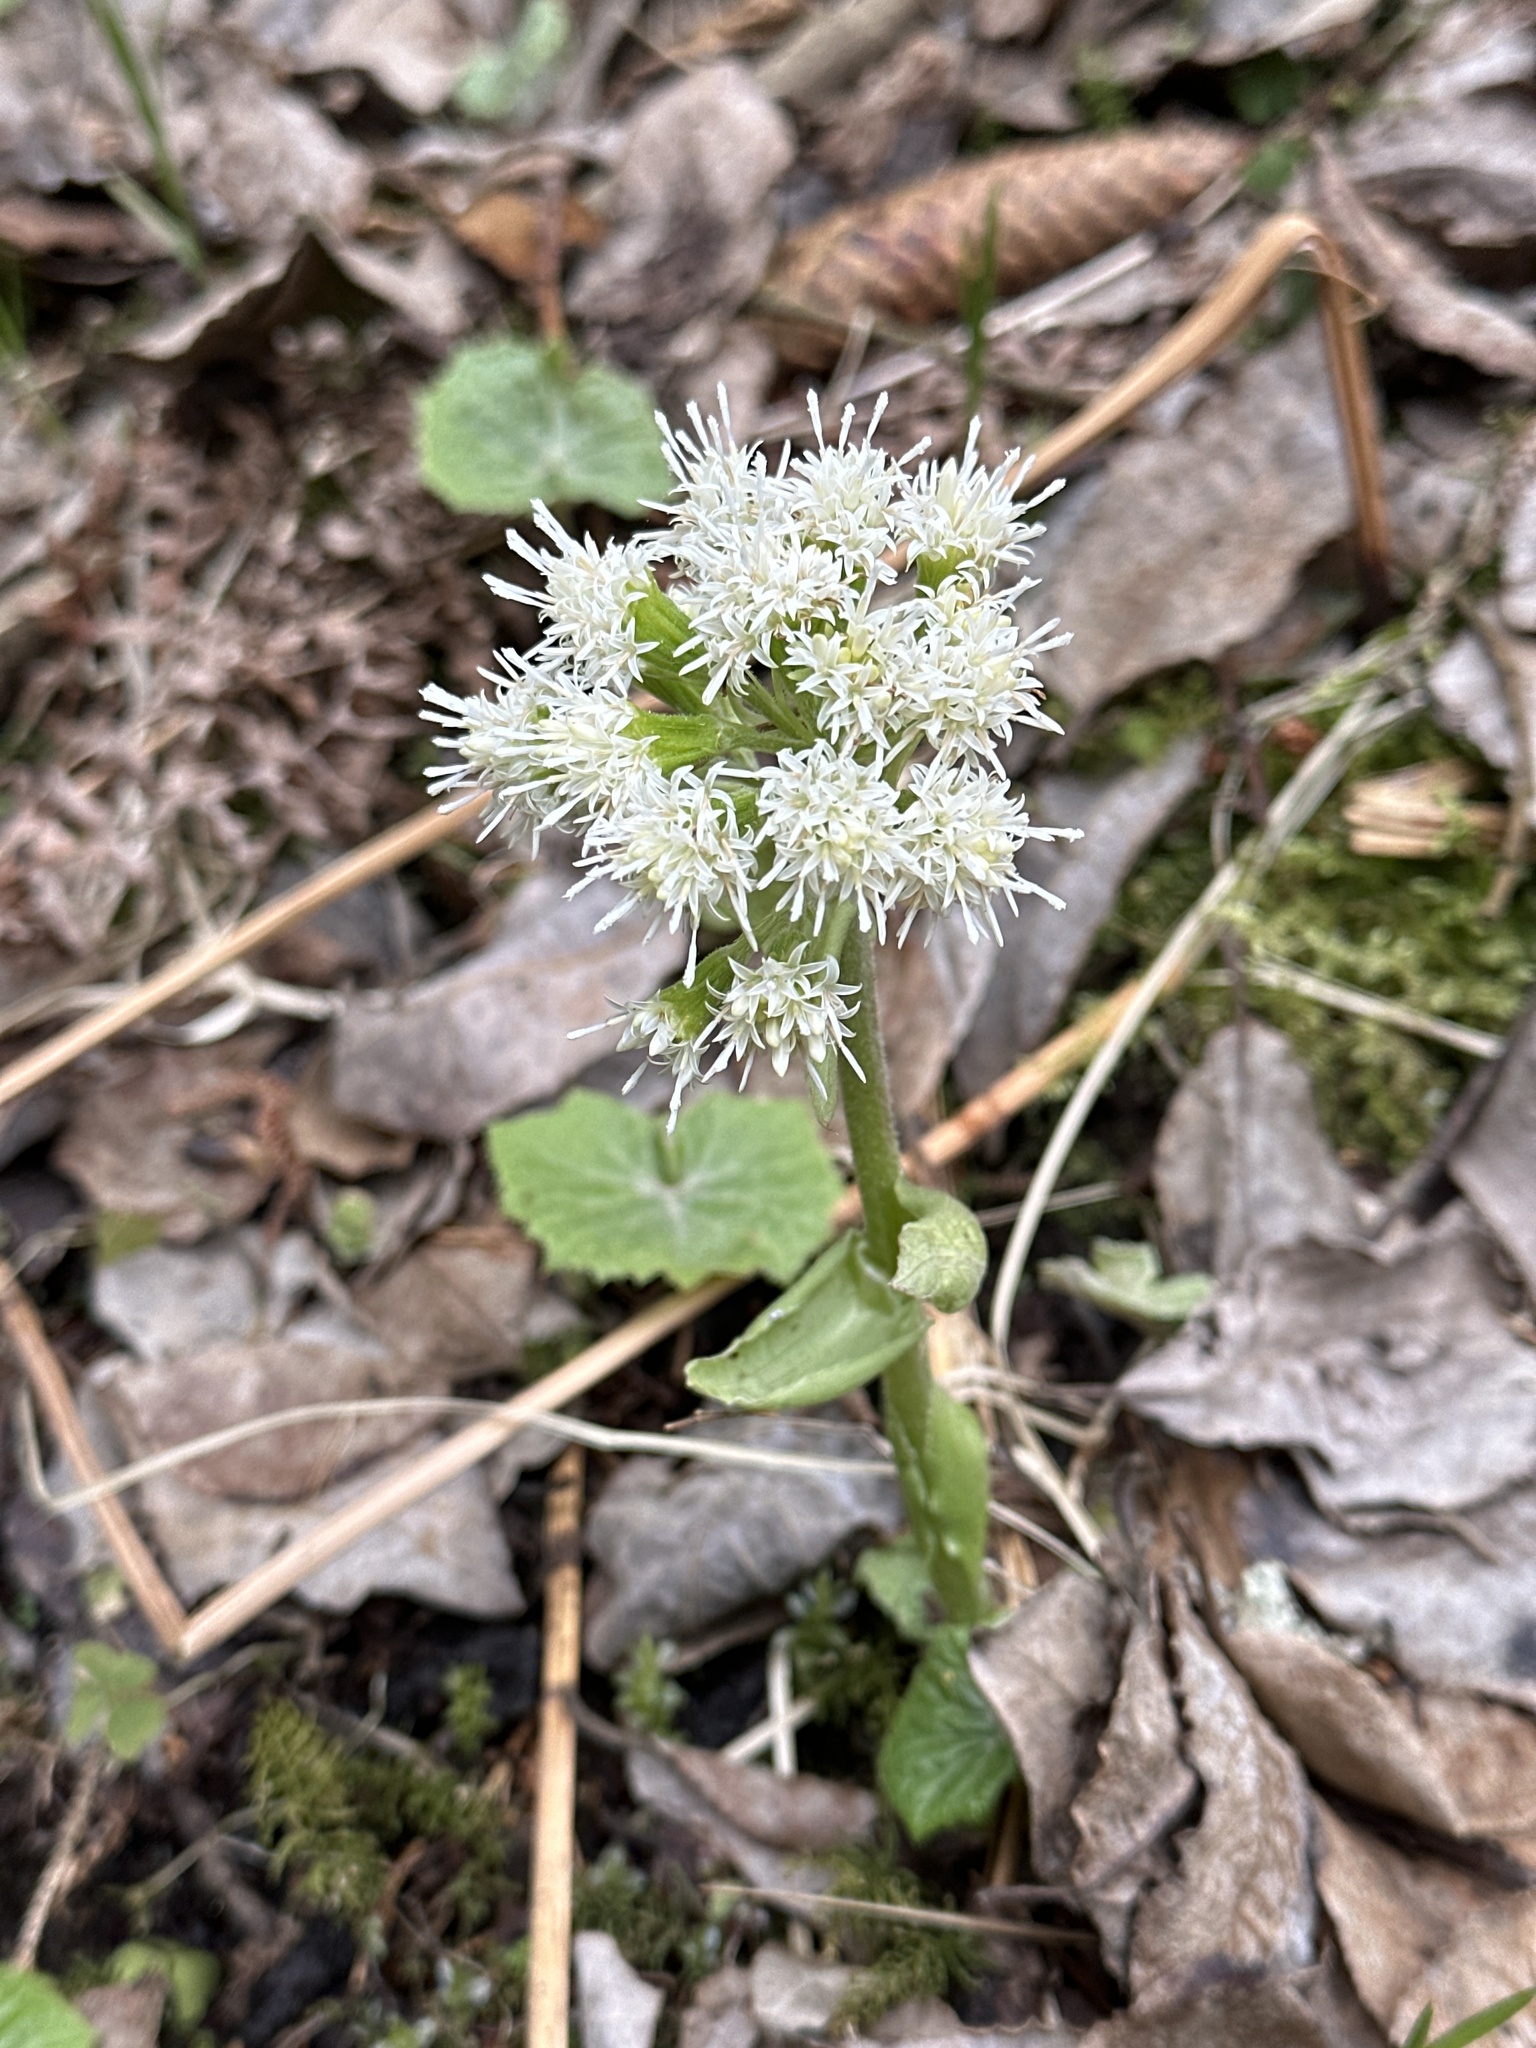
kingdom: Plantae
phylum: Tracheophyta
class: Magnoliopsida
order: Asterales
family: Asteraceae
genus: Petasites
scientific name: Petasites albus
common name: White butterbur
